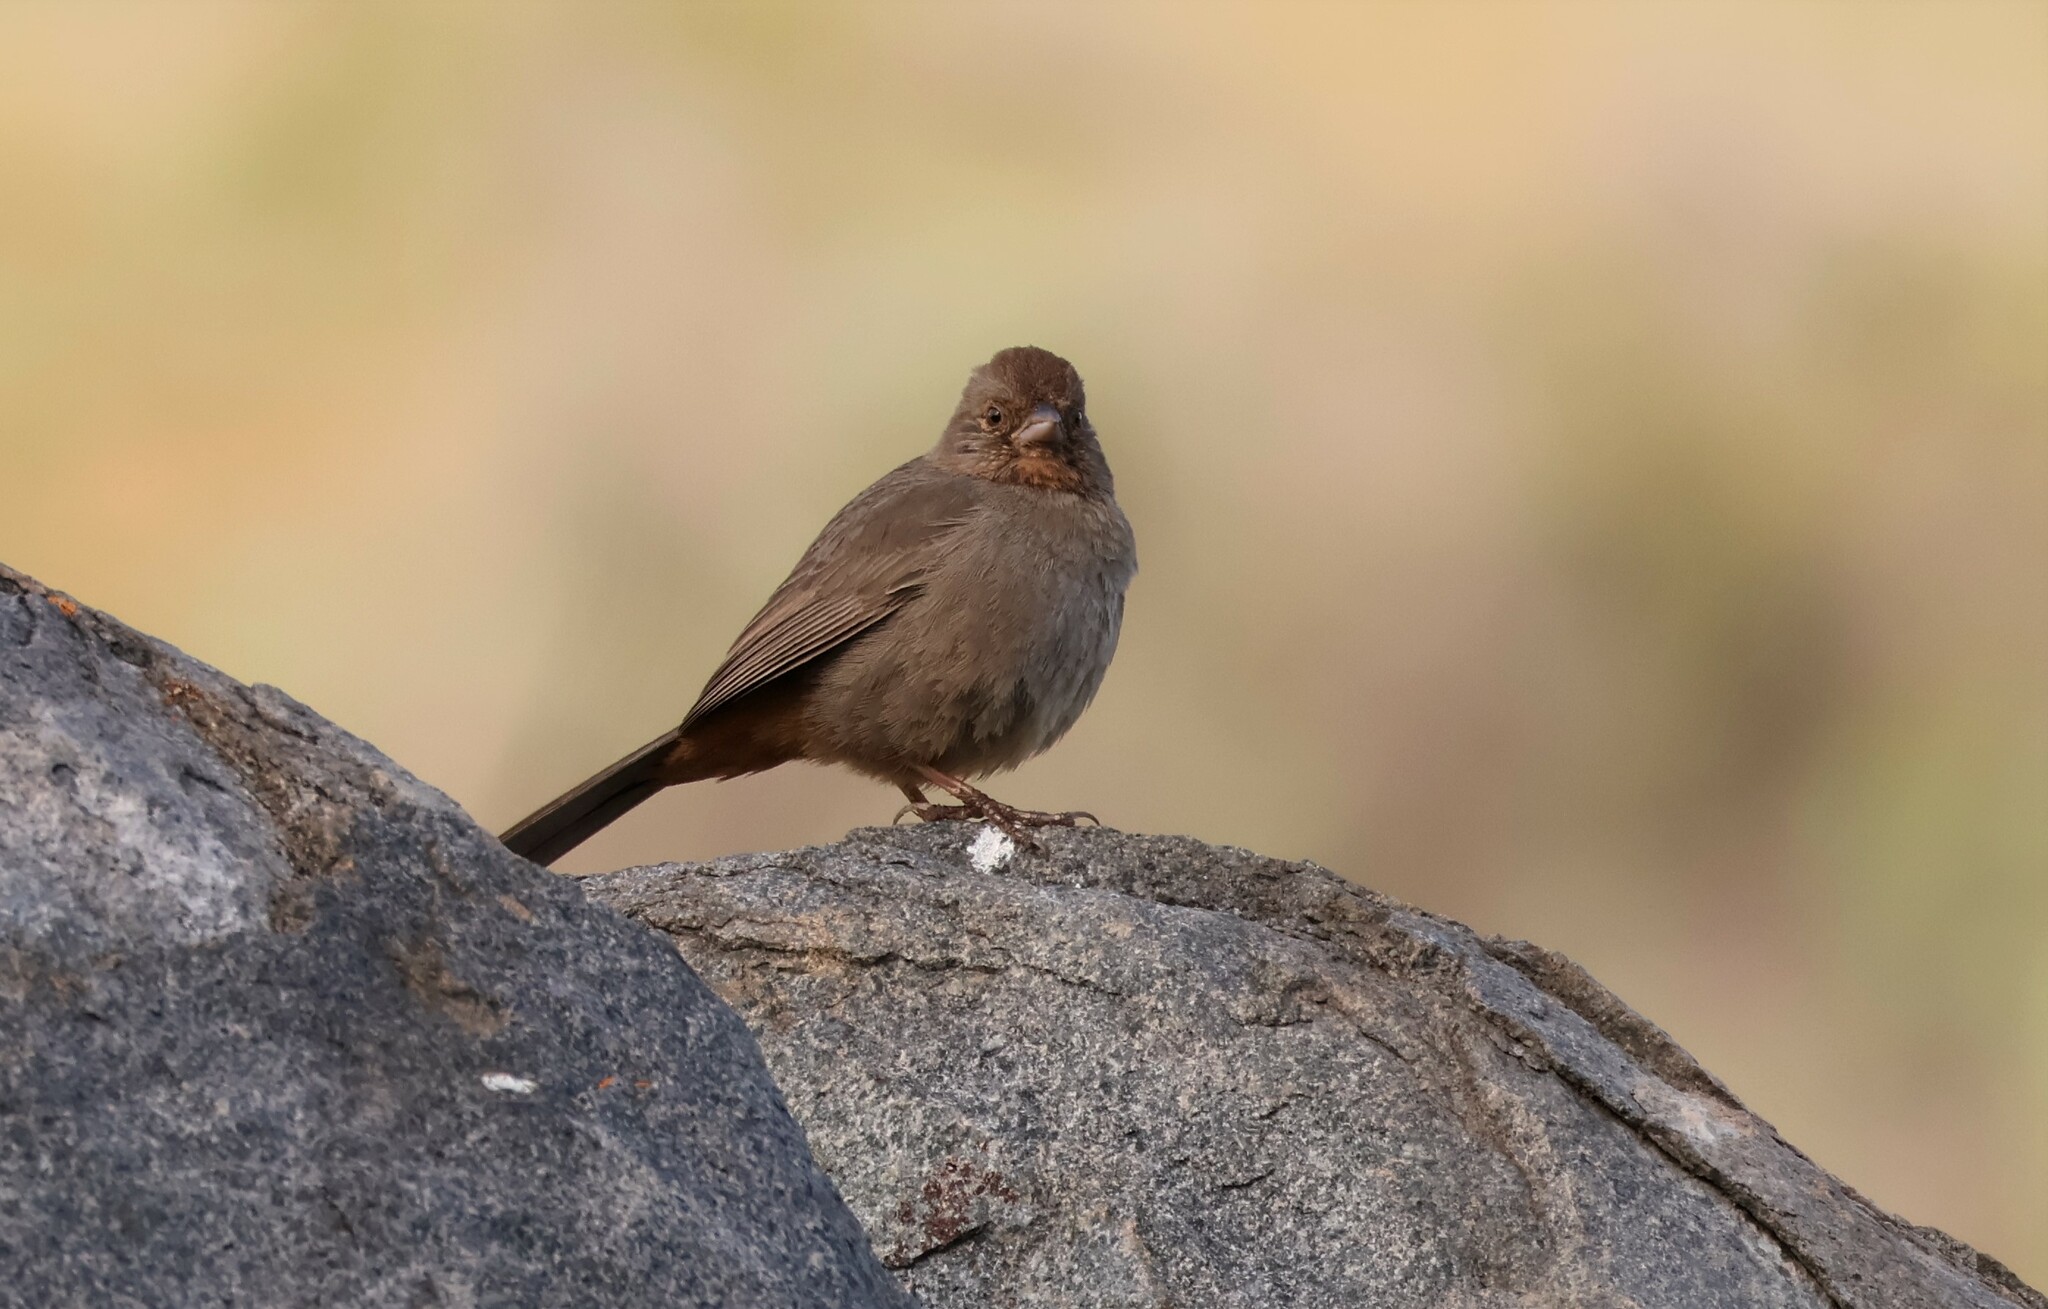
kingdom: Animalia
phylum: Chordata
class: Aves
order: Passeriformes
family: Passerellidae
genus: Melozone
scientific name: Melozone crissalis
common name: California towhee
